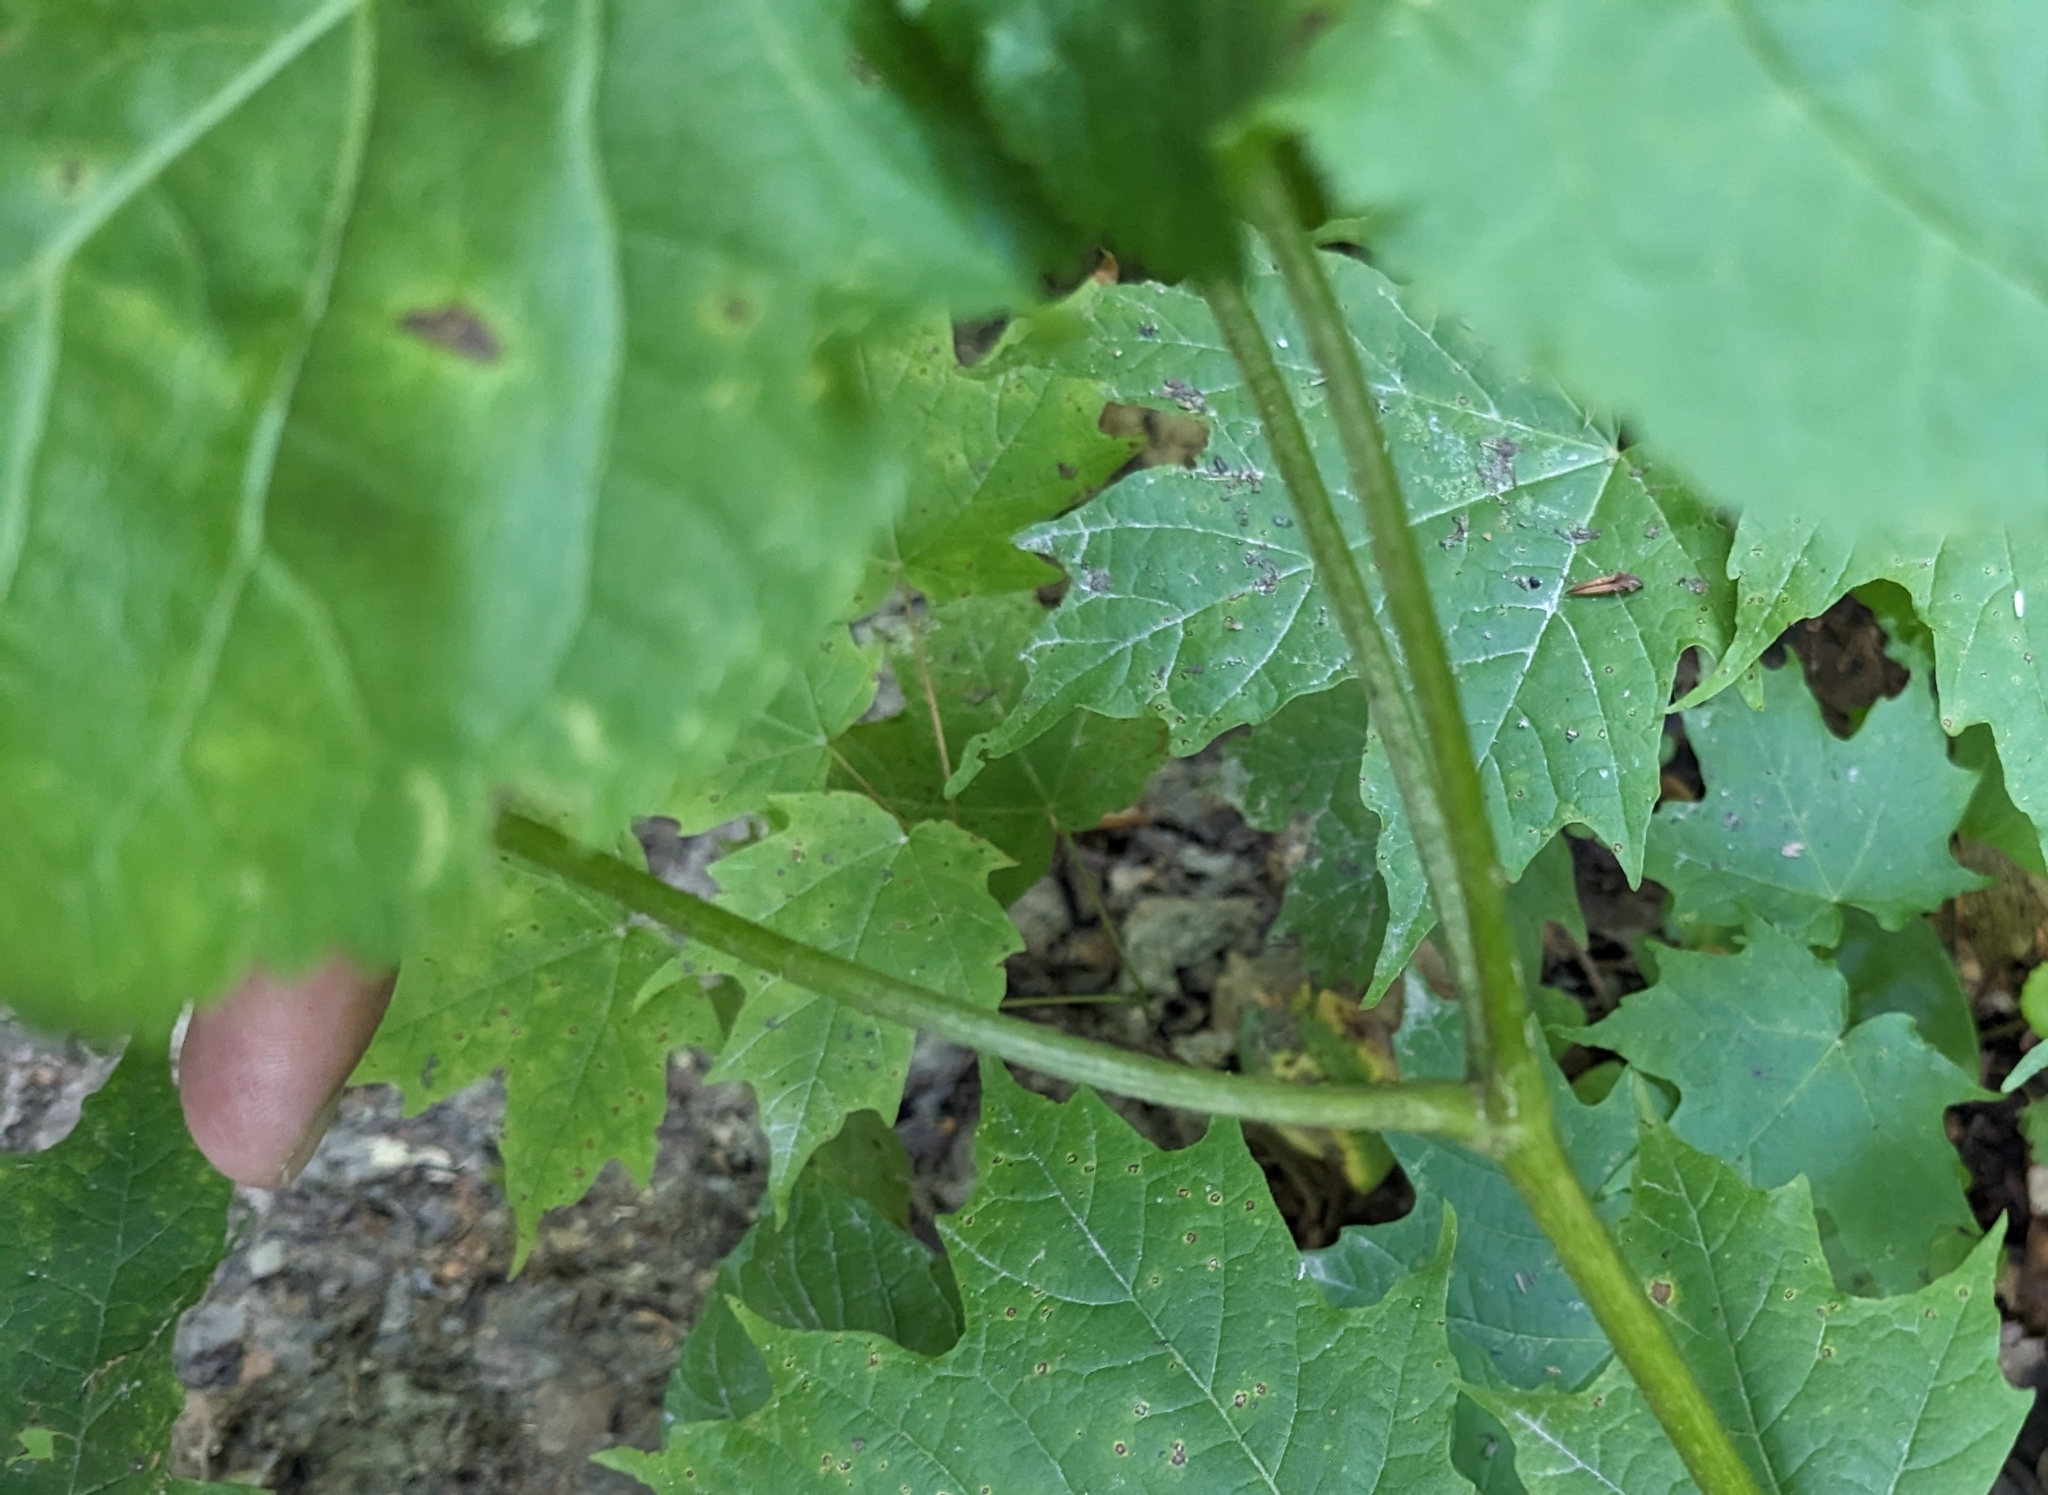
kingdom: Plantae
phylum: Tracheophyta
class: Magnoliopsida
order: Apiales
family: Araliaceae
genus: Aralia
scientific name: Aralia nudicaulis
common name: Wild sarsaparilla
